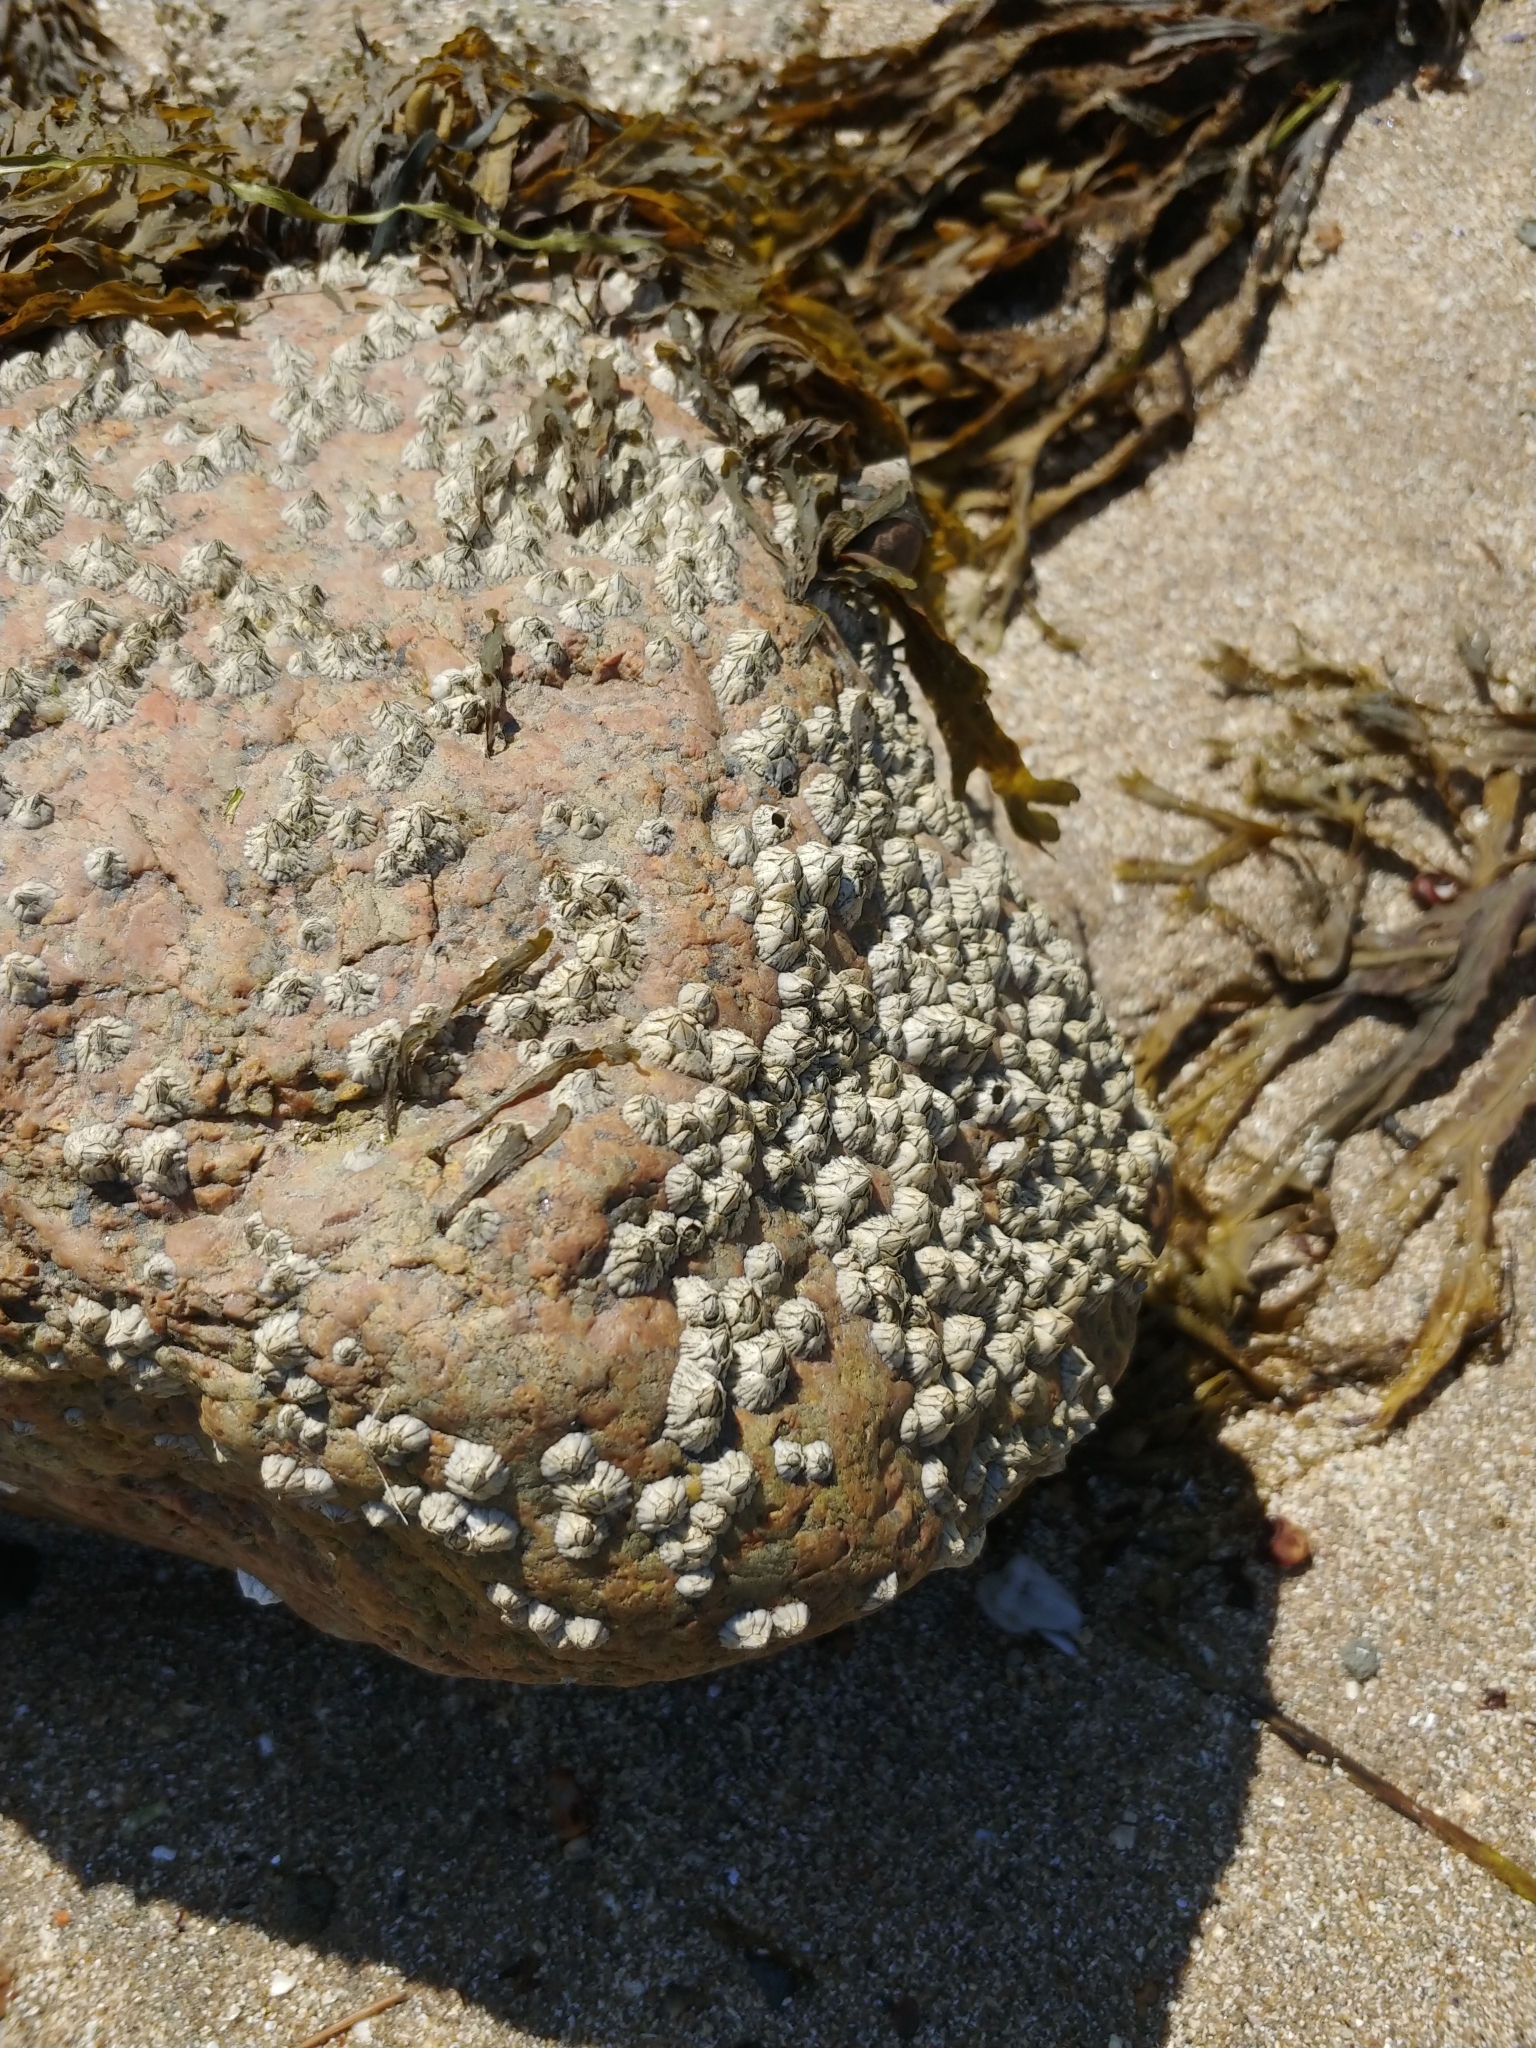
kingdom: Animalia
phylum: Arthropoda
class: Maxillopoda
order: Sessilia
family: Archaeobalanidae
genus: Semibalanus
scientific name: Semibalanus balanoides
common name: Acorn barnacle
